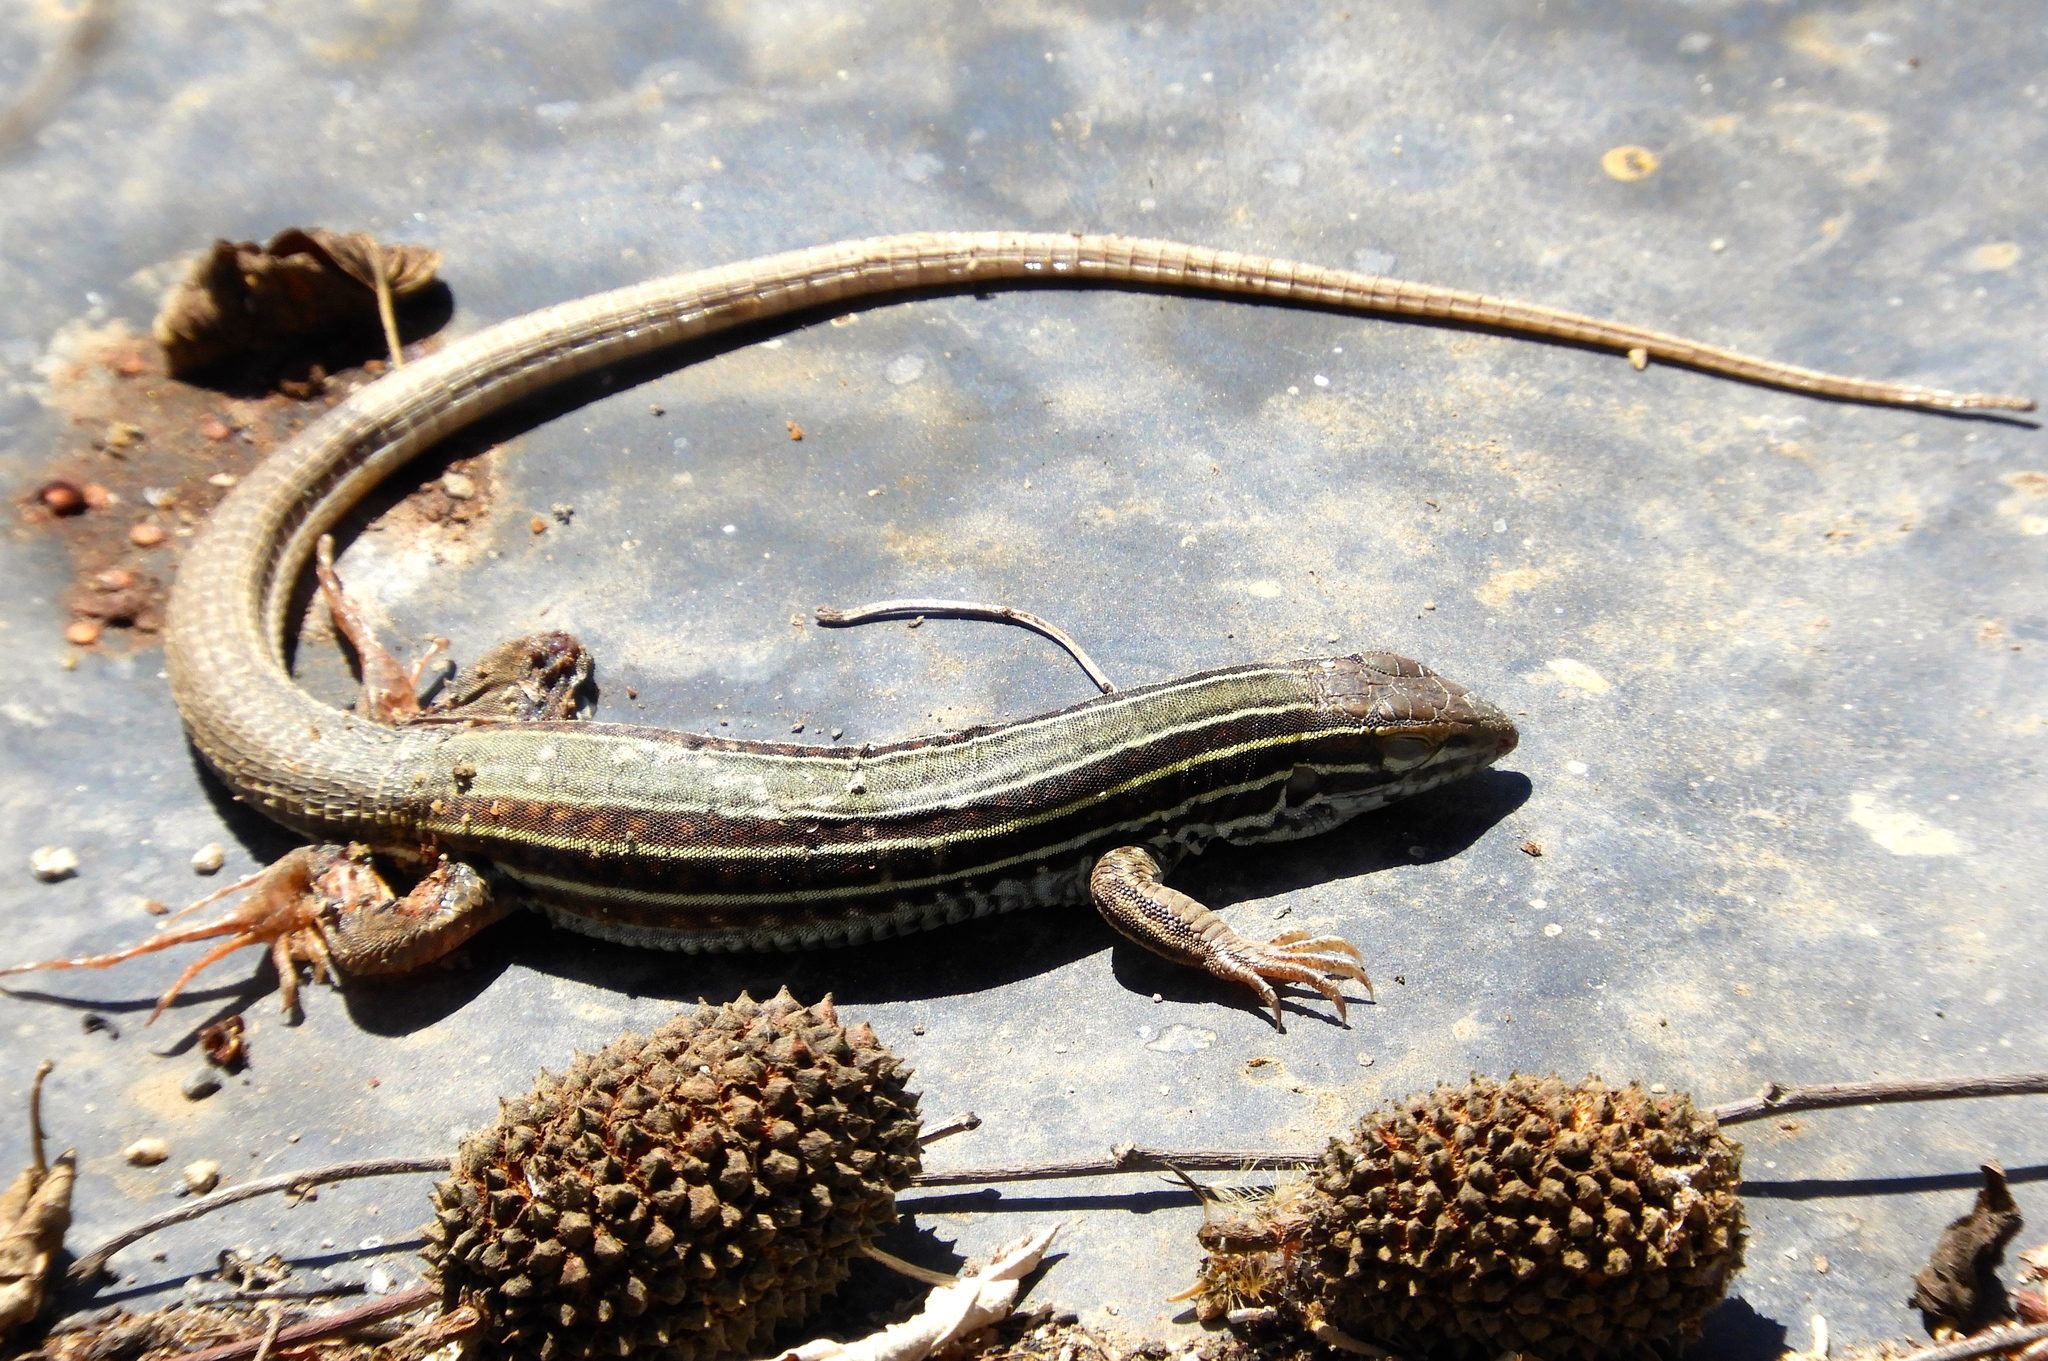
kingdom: Animalia
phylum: Chordata
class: Squamata
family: Teiidae
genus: Aspidoscelis
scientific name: Aspidoscelis costatus
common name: Western mexico whiptail
